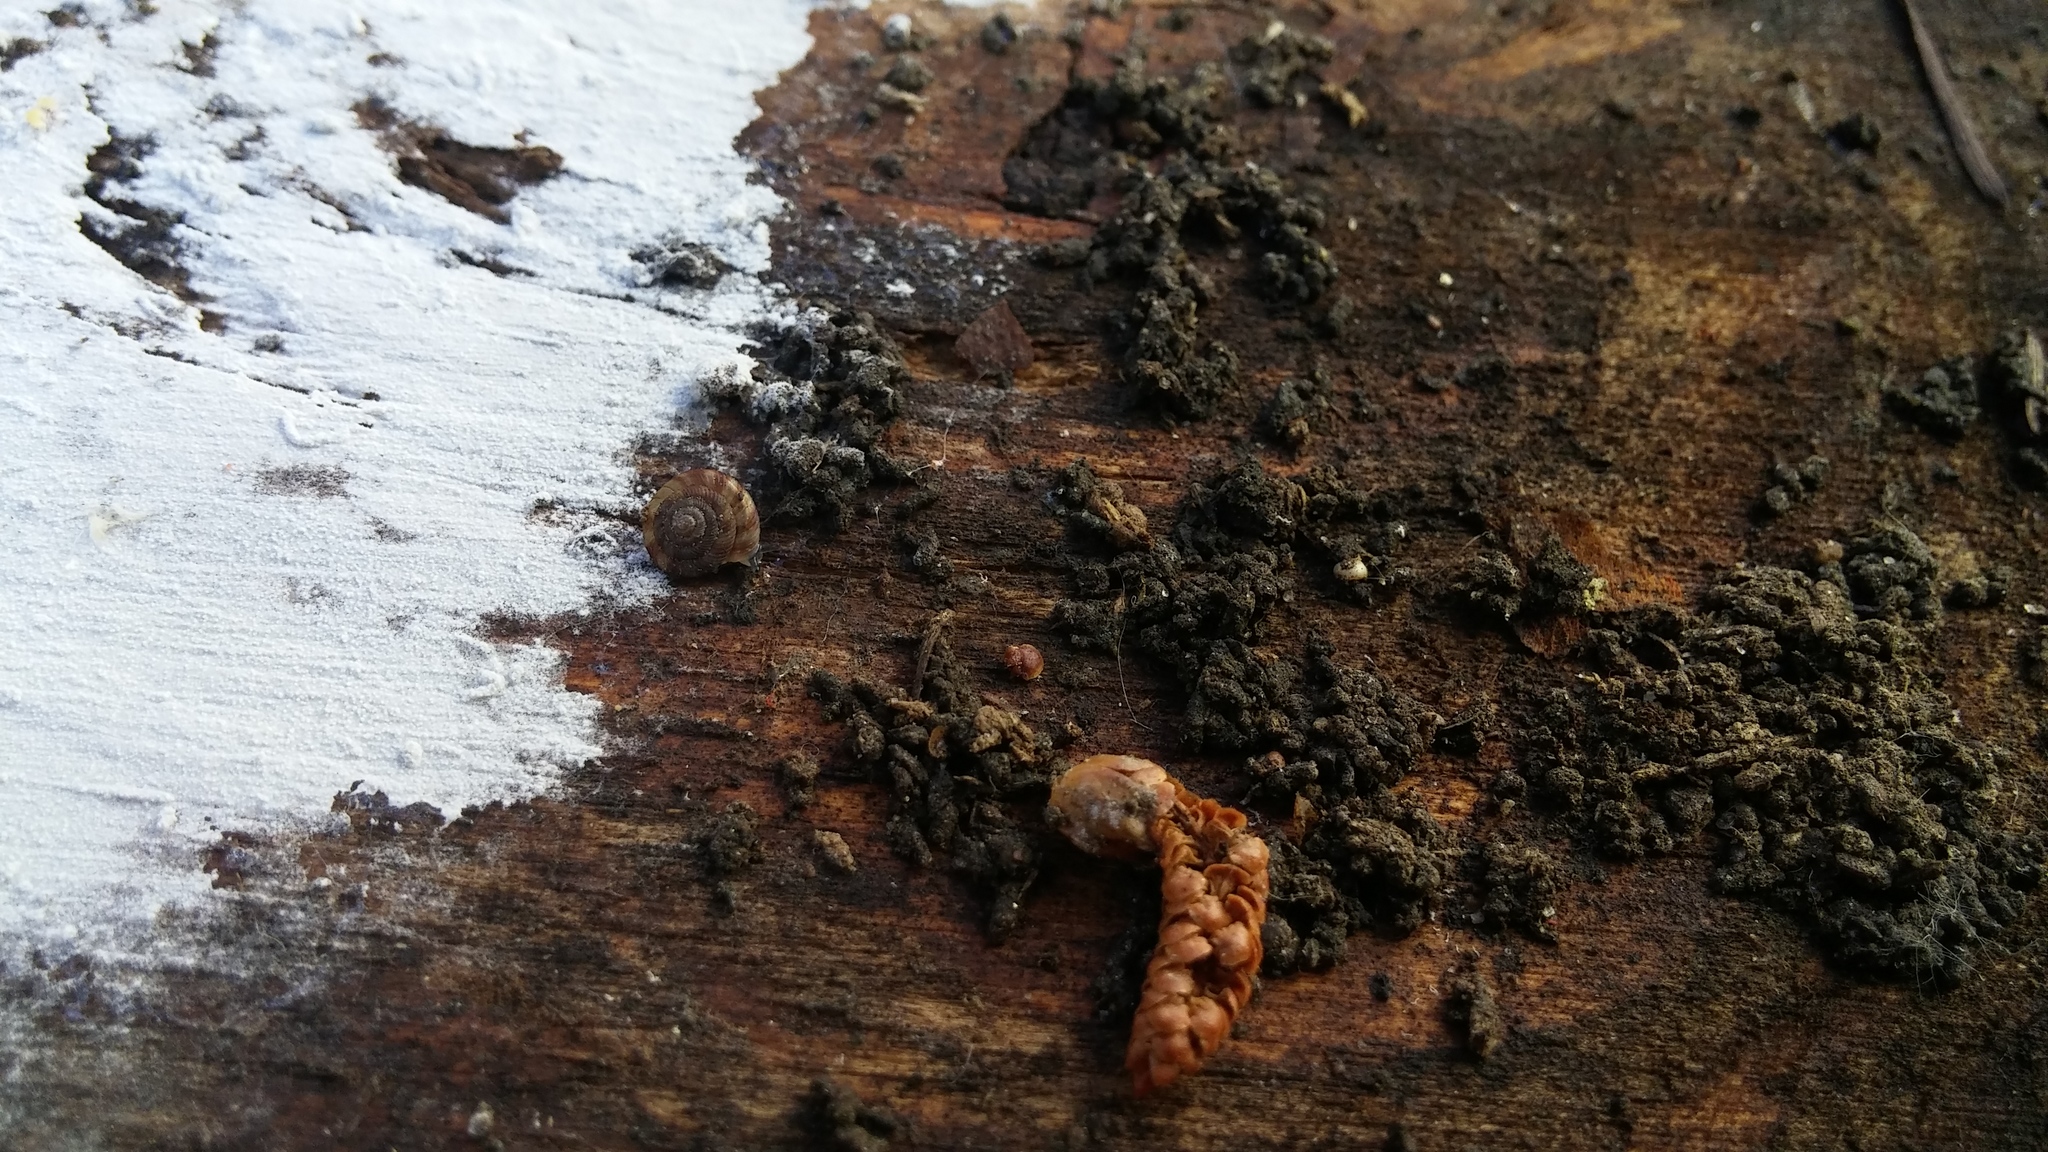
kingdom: Animalia
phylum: Mollusca
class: Gastropoda
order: Stylommatophora
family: Discidae
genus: Discus
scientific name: Discus rotundatus
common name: Rounded snail
